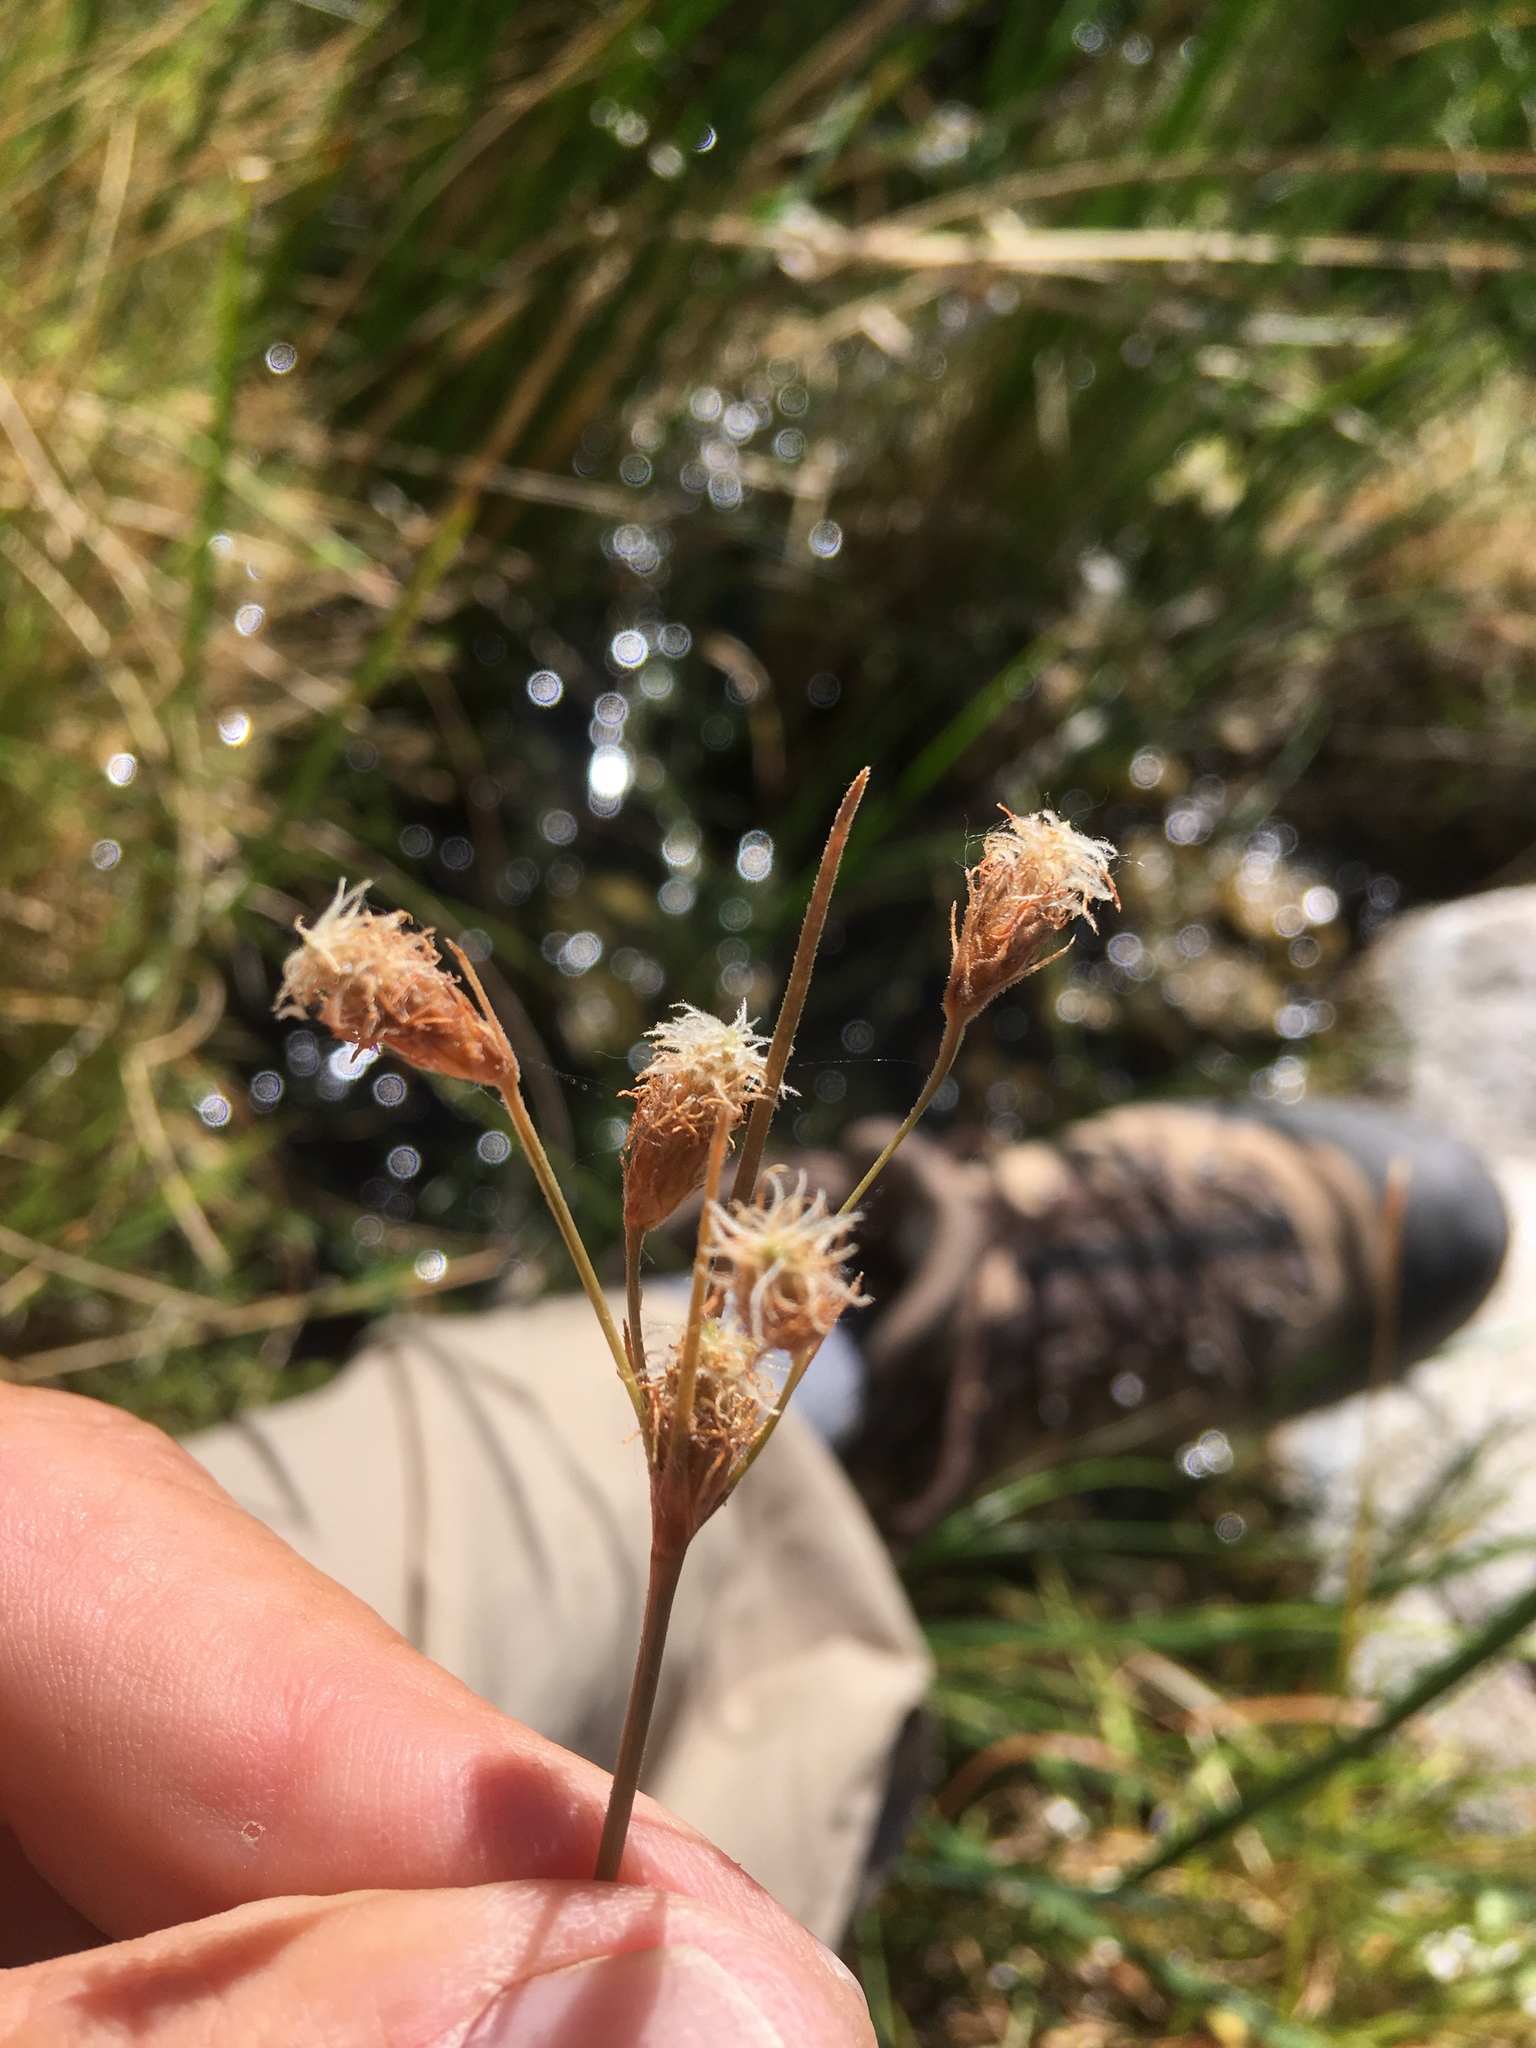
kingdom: Plantae
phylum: Tracheophyta
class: Liliopsida
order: Poales
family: Cyperaceae
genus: Fimbristylis
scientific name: Fimbristylis thermalis
